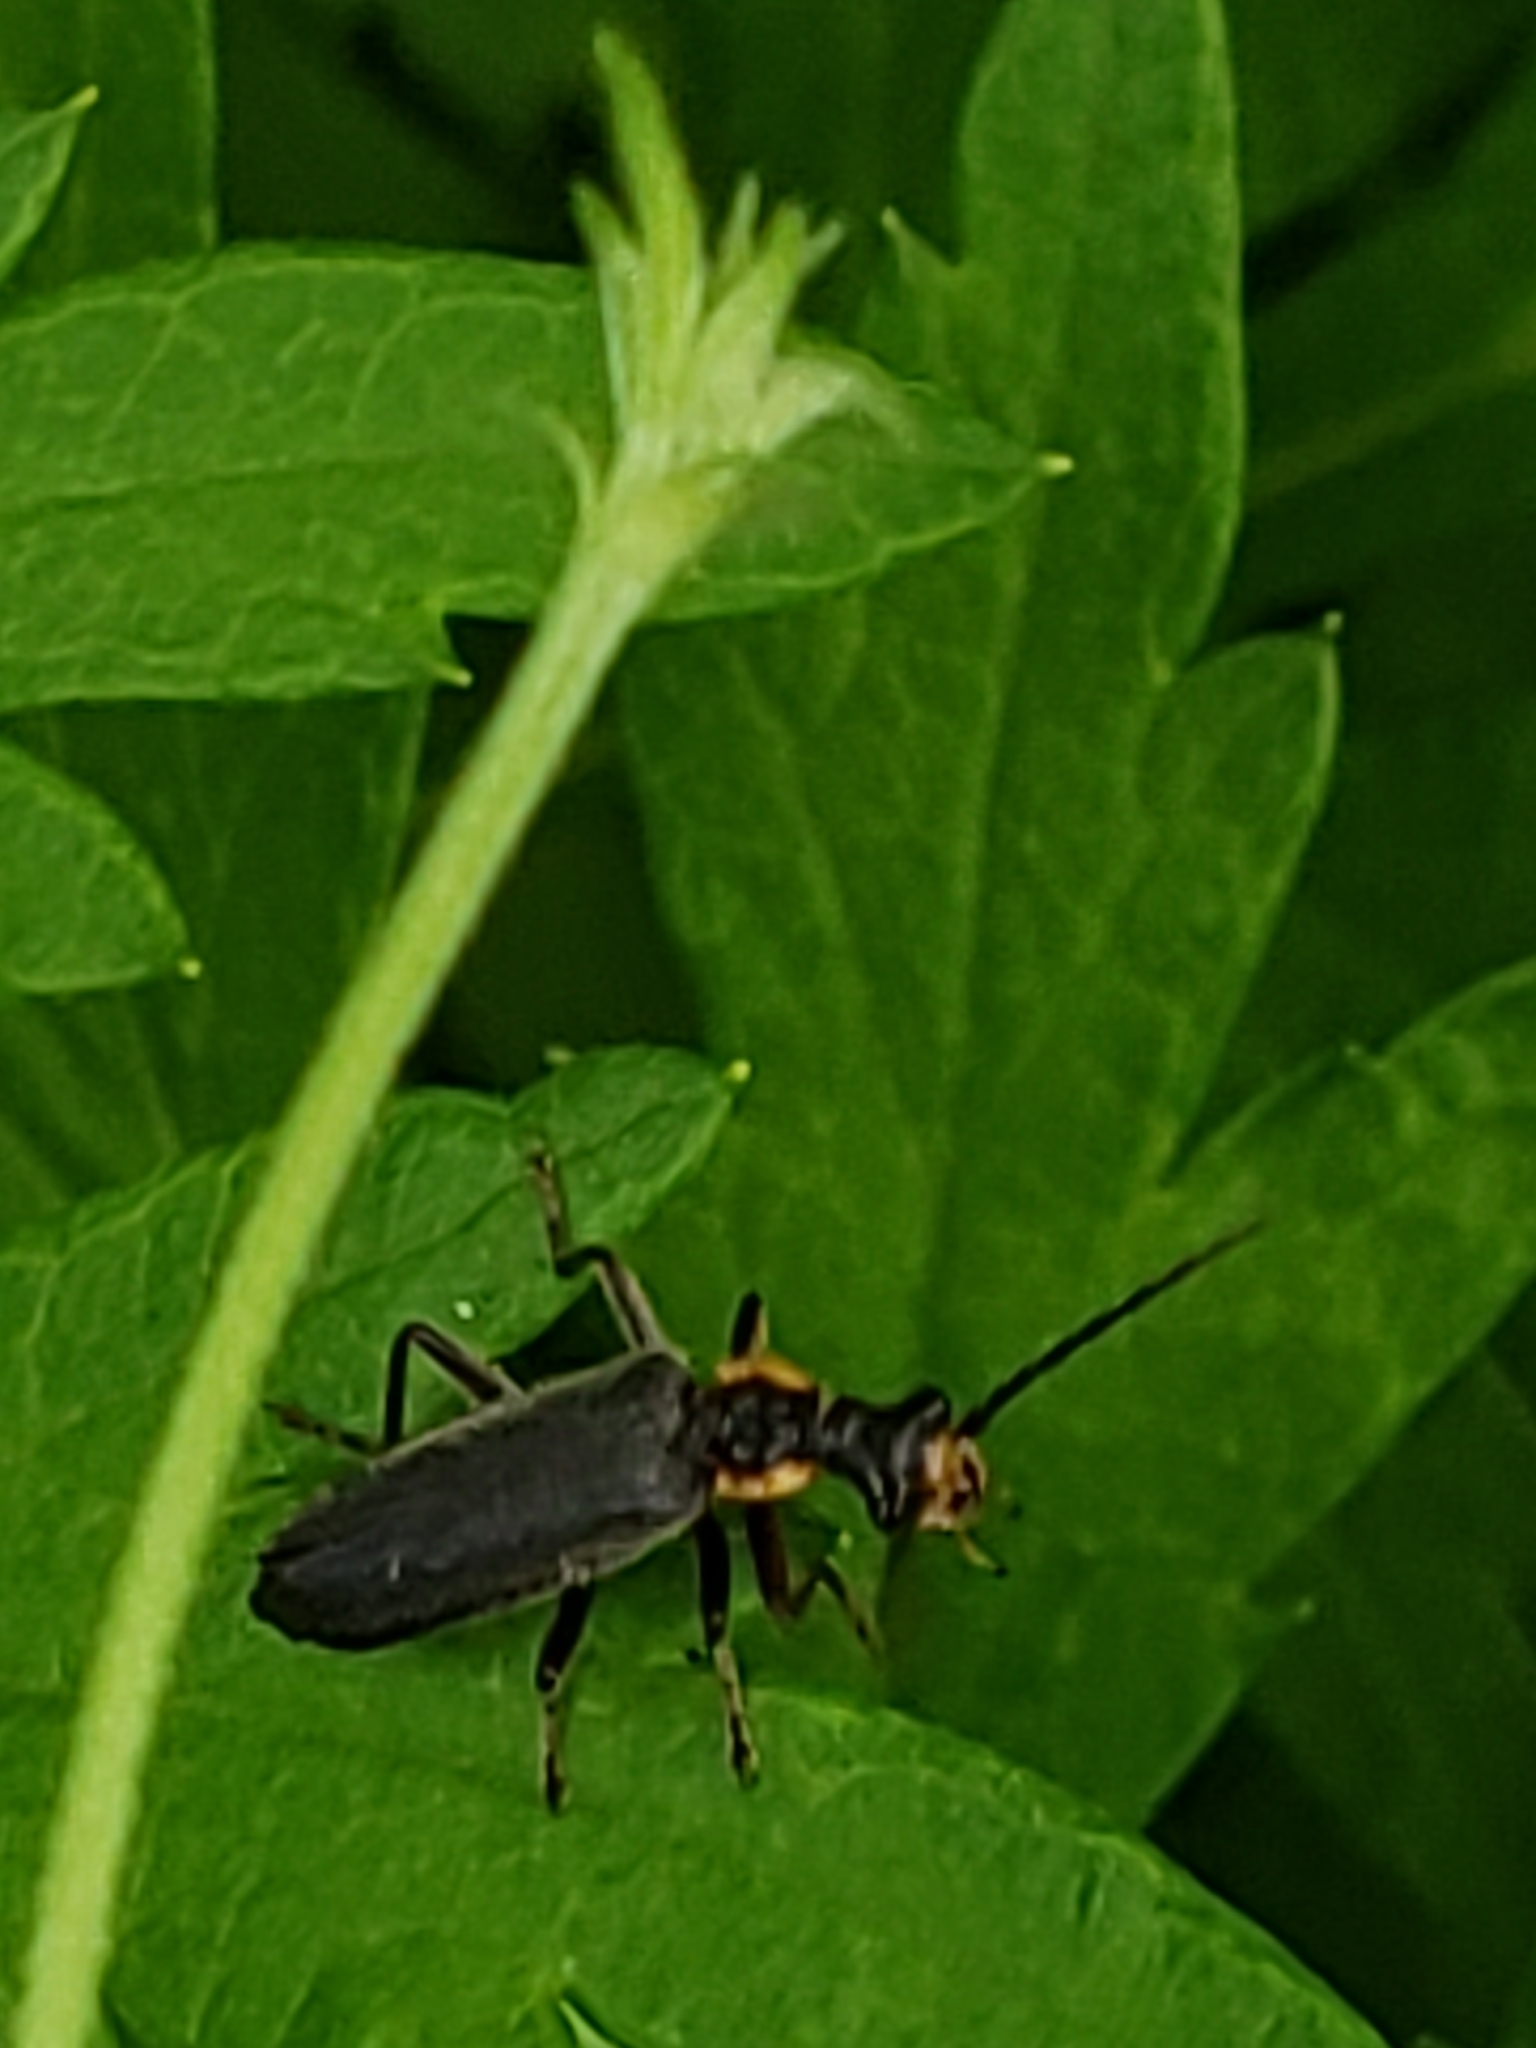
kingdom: Animalia
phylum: Arthropoda
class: Insecta
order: Coleoptera
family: Cantharidae
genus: Podabrus
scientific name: Podabrus rugosulus
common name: Wrinkled soldier beetle
